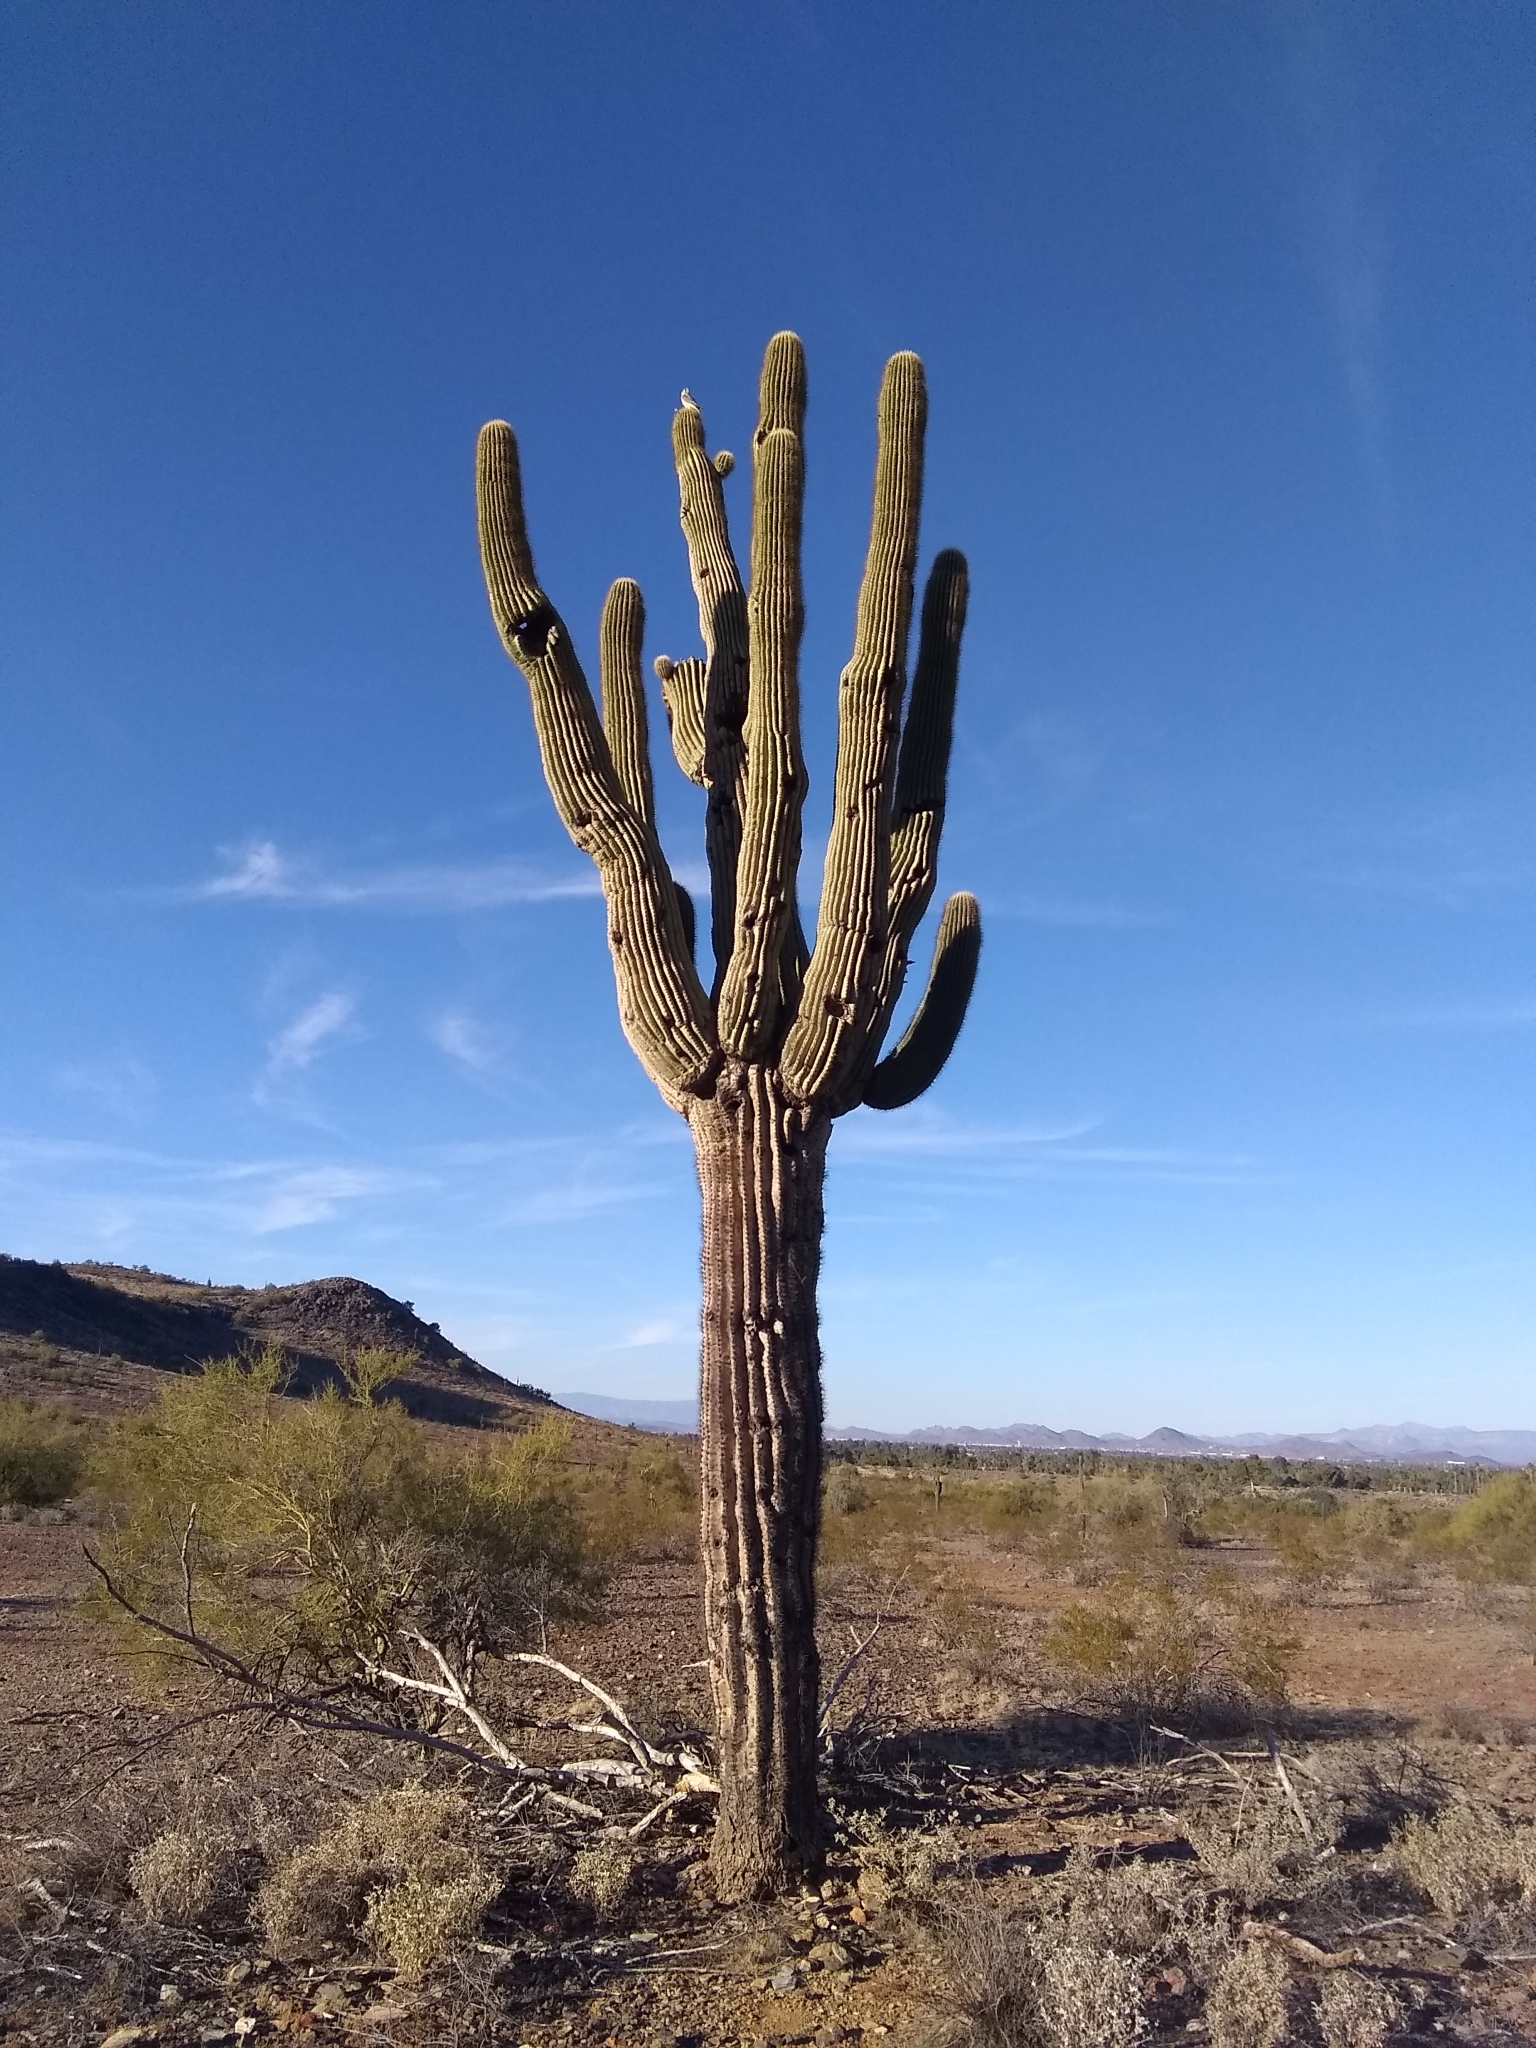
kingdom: Plantae
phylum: Tracheophyta
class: Magnoliopsida
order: Caryophyllales
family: Cactaceae
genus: Carnegiea
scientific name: Carnegiea gigantea
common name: Saguaro
